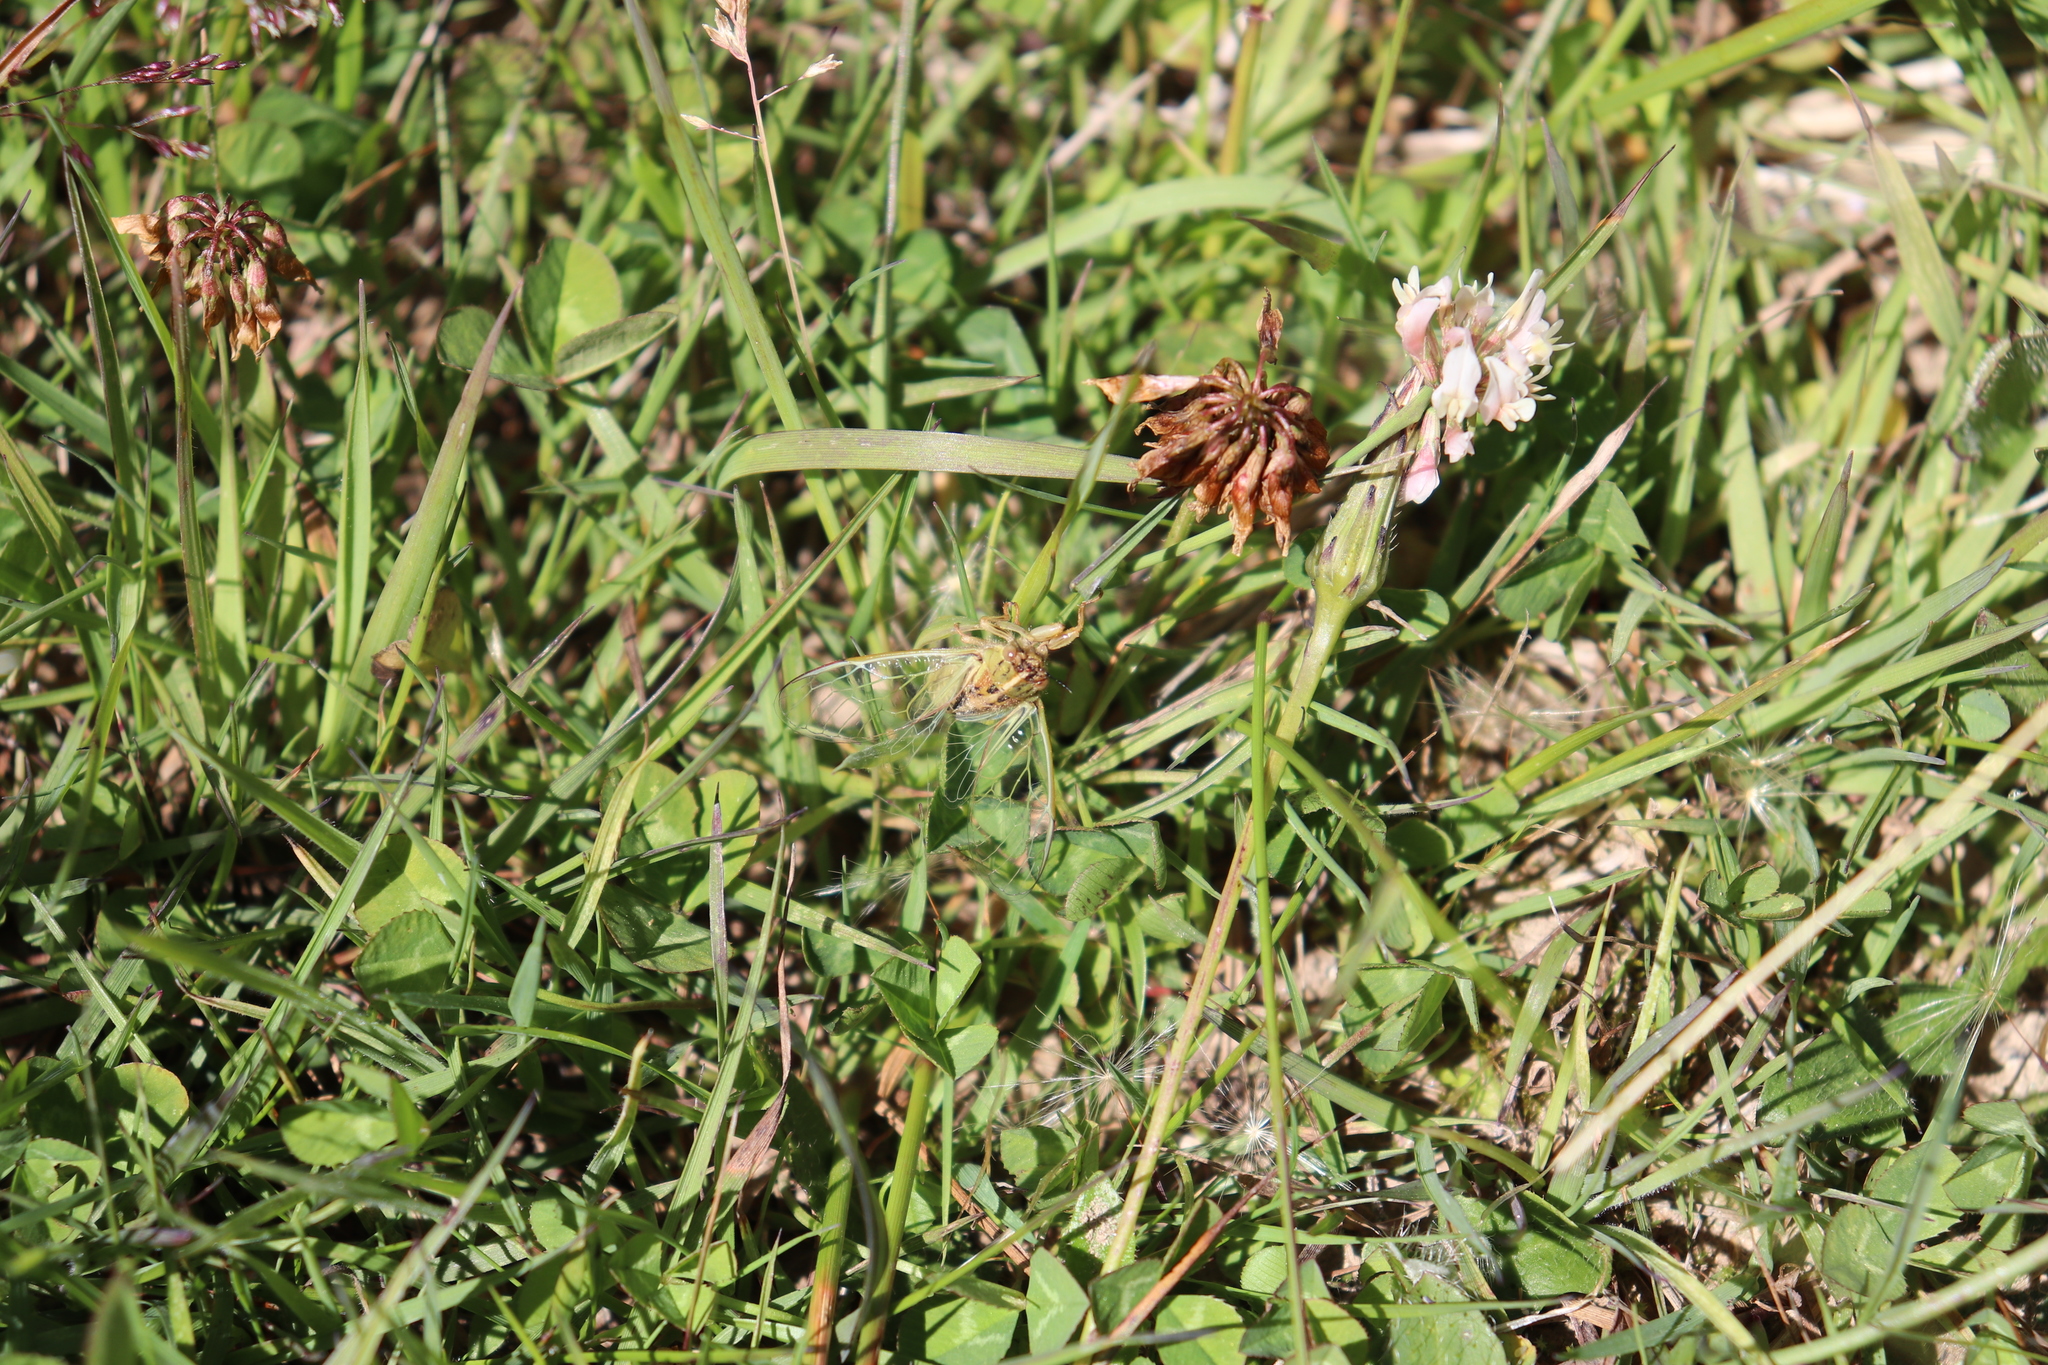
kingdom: Animalia
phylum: Arthropoda
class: Insecta
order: Hemiptera
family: Cicadidae
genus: Kikihia
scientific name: Kikihia angusta
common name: Tussock cicada
